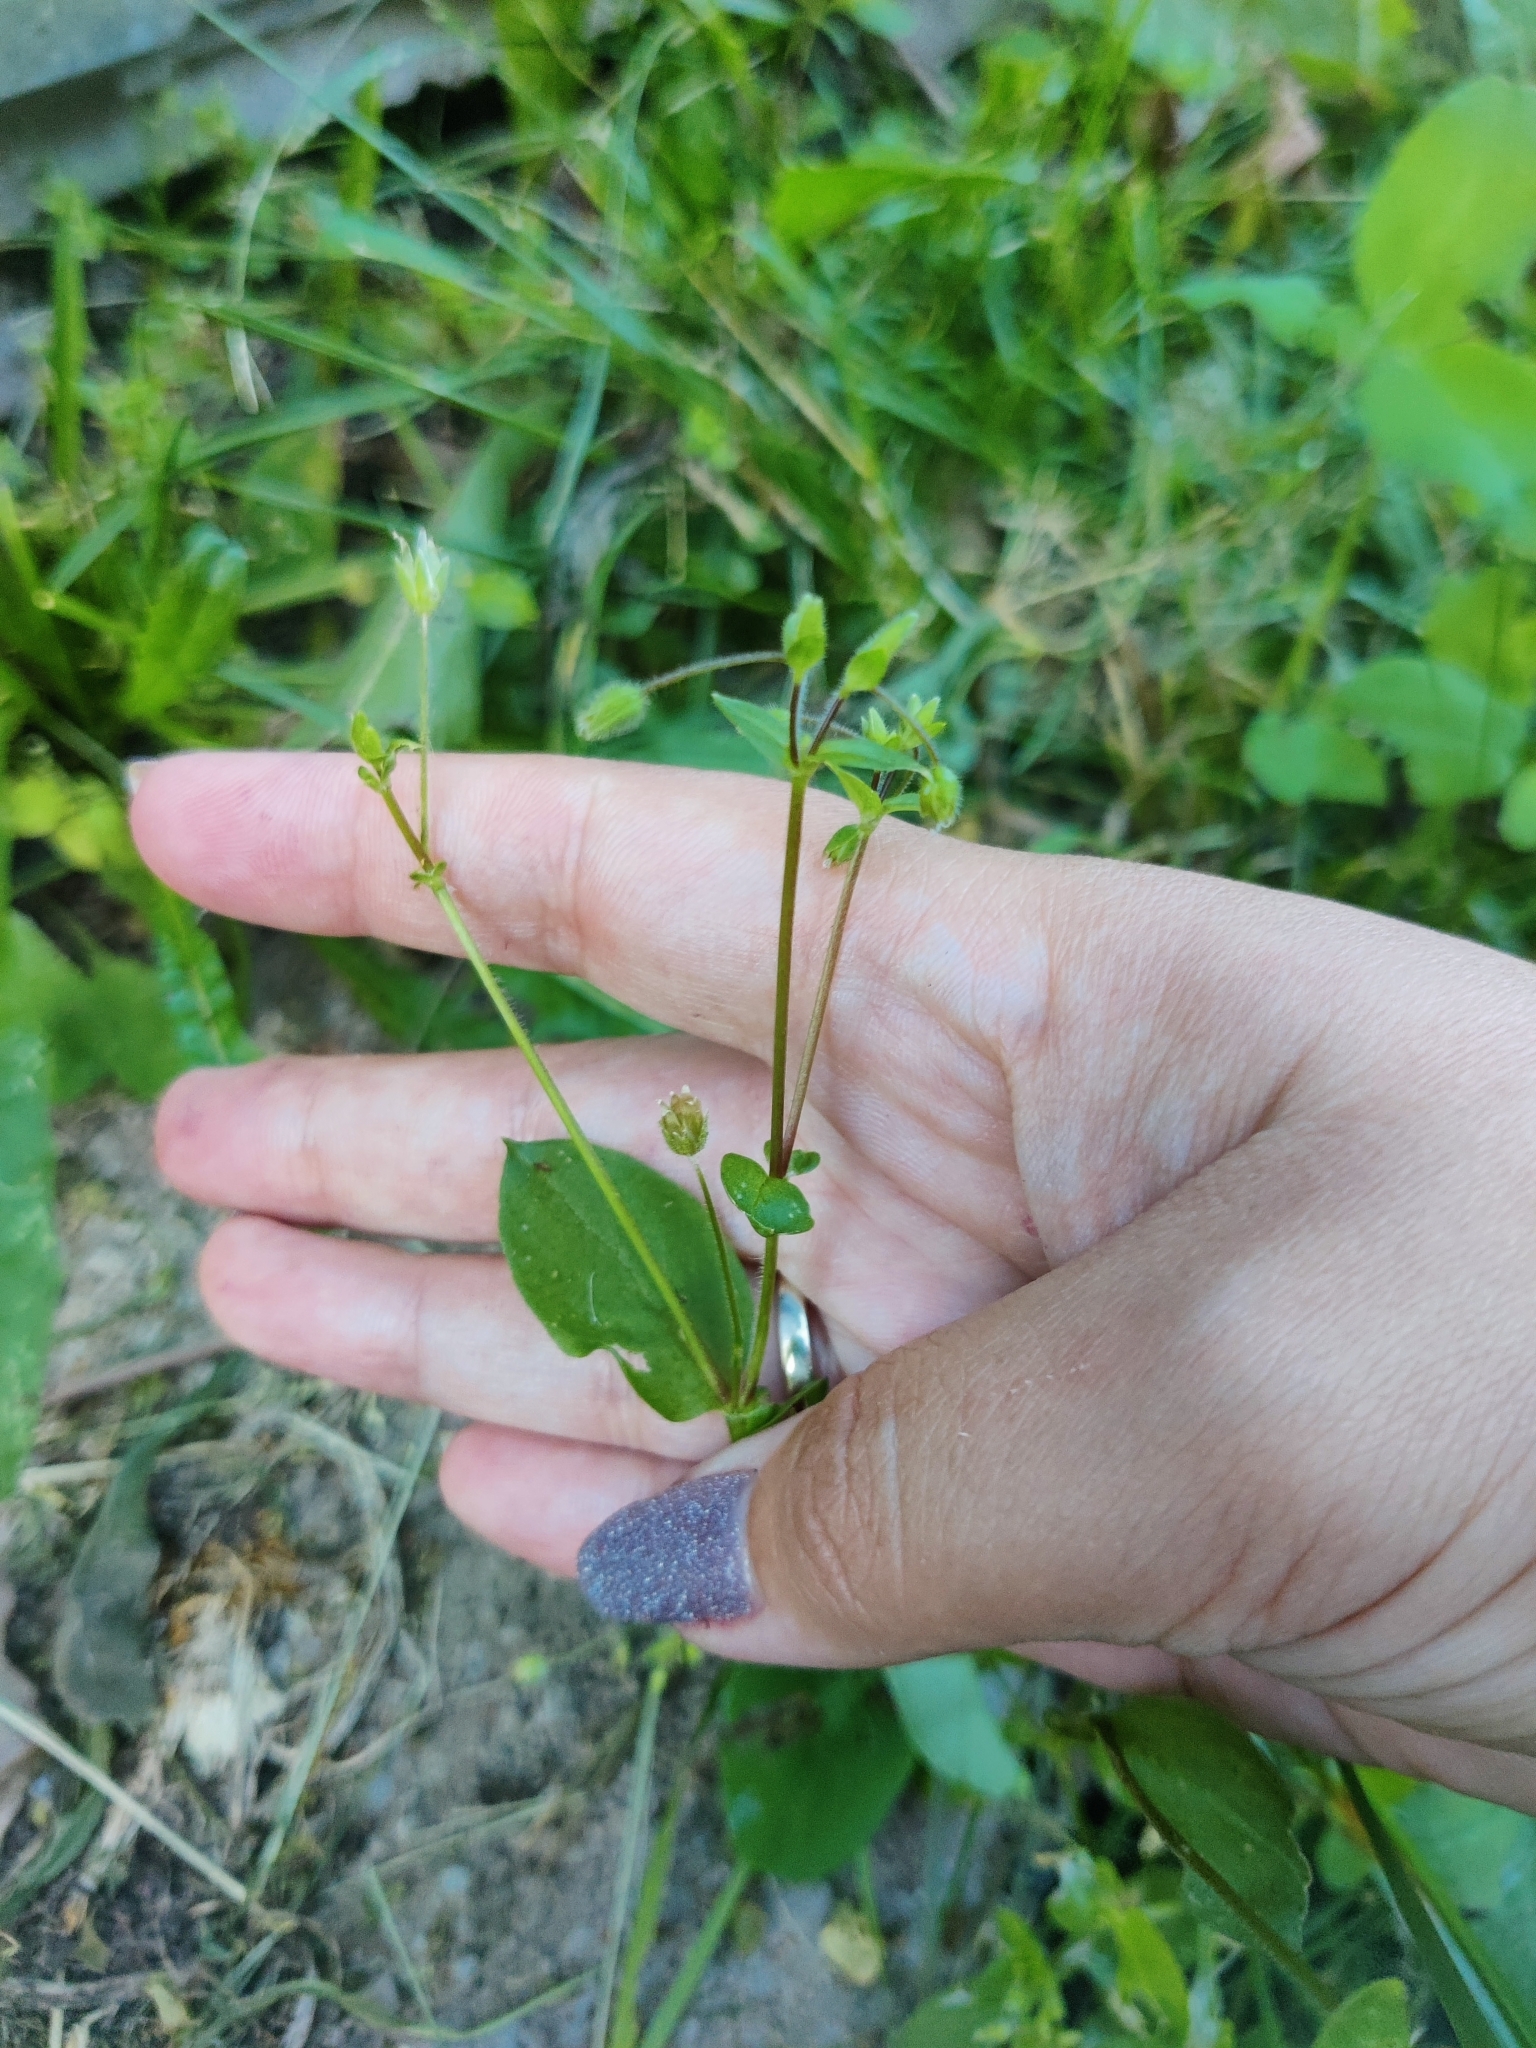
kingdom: Plantae
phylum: Tracheophyta
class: Magnoliopsida
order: Caryophyllales
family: Caryophyllaceae
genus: Stellaria
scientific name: Stellaria aquatica
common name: Water chickweed
